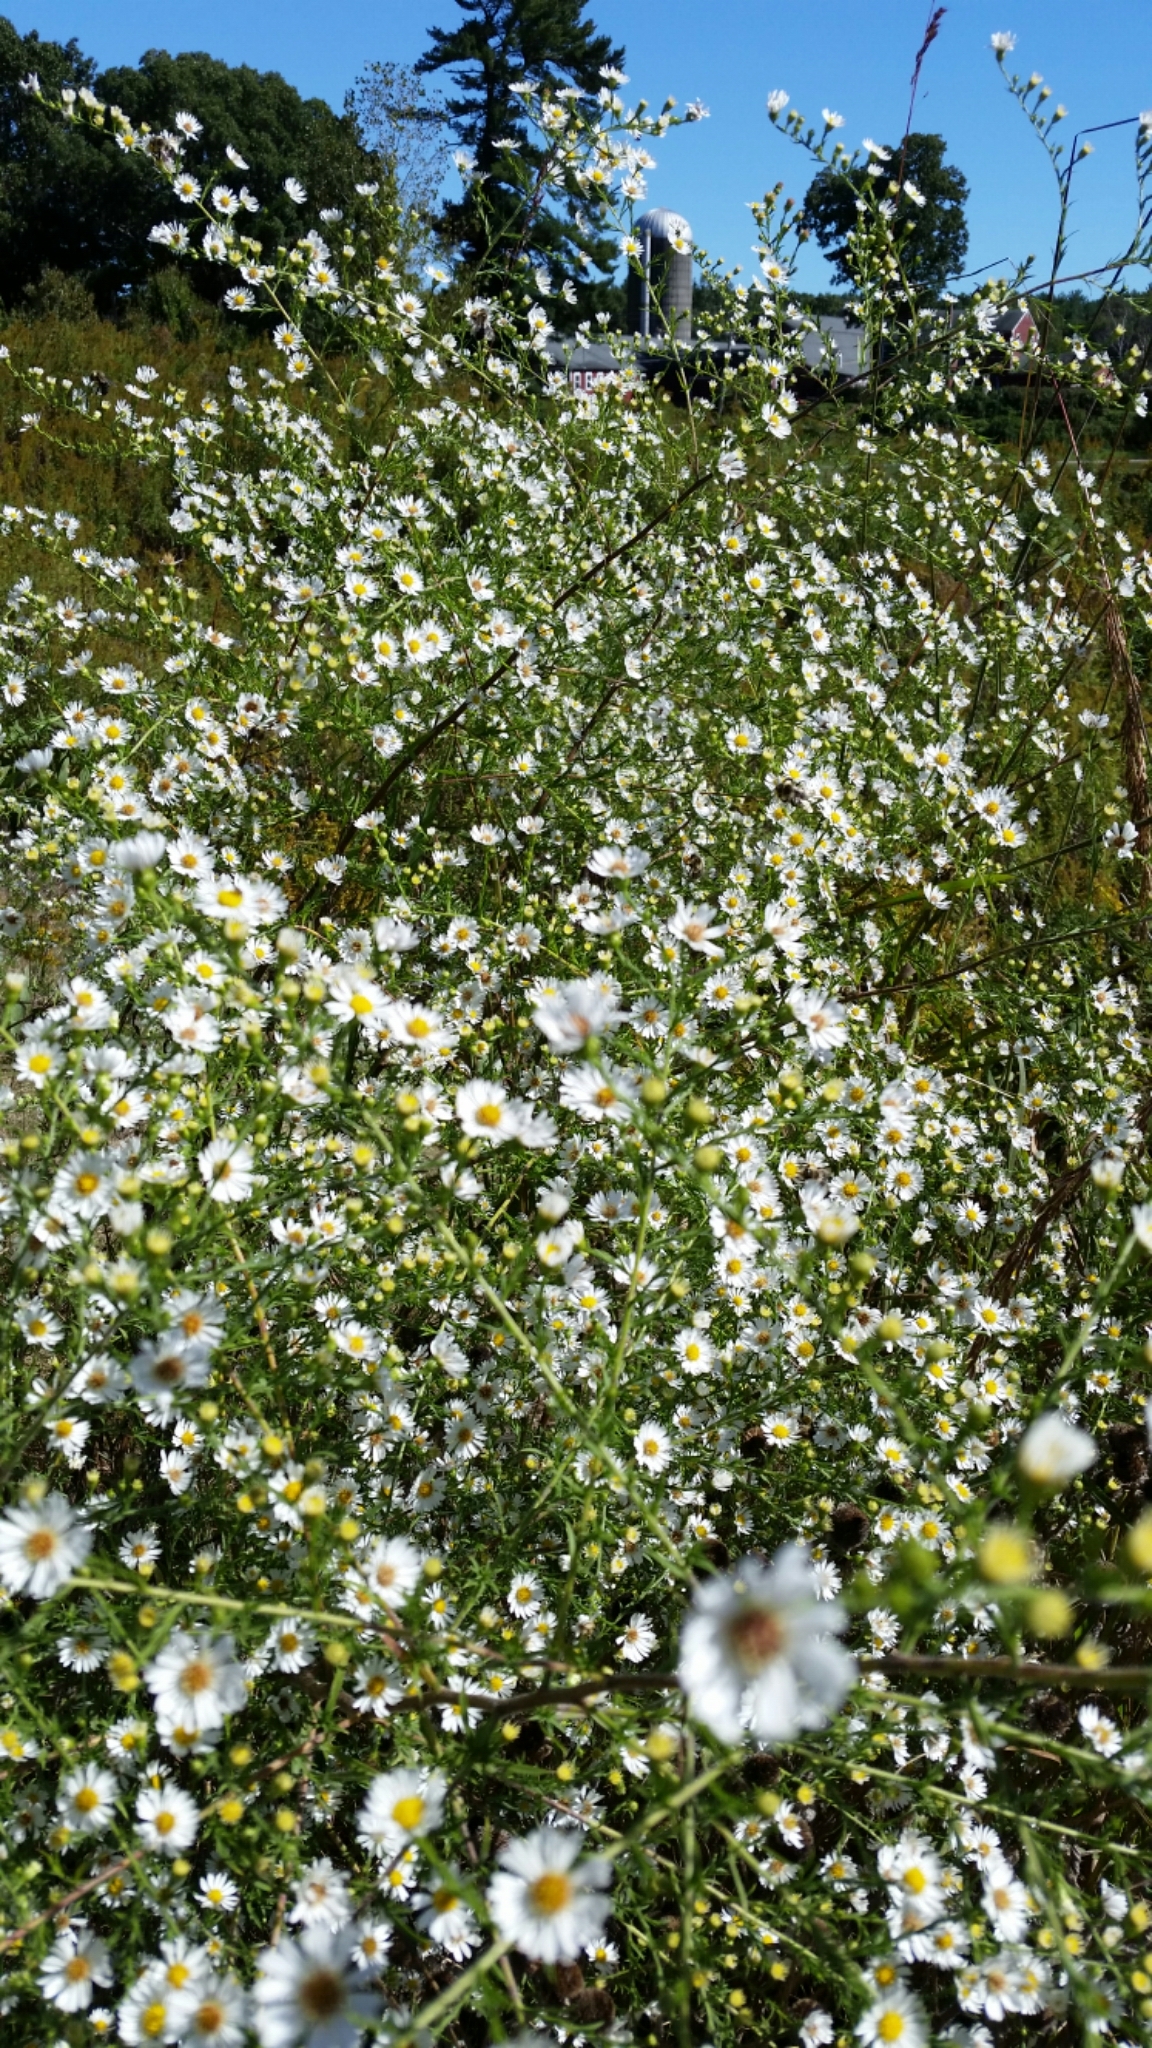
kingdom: Plantae
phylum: Tracheophyta
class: Magnoliopsida
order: Asterales
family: Asteraceae
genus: Symphyotrichum
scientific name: Symphyotrichum
